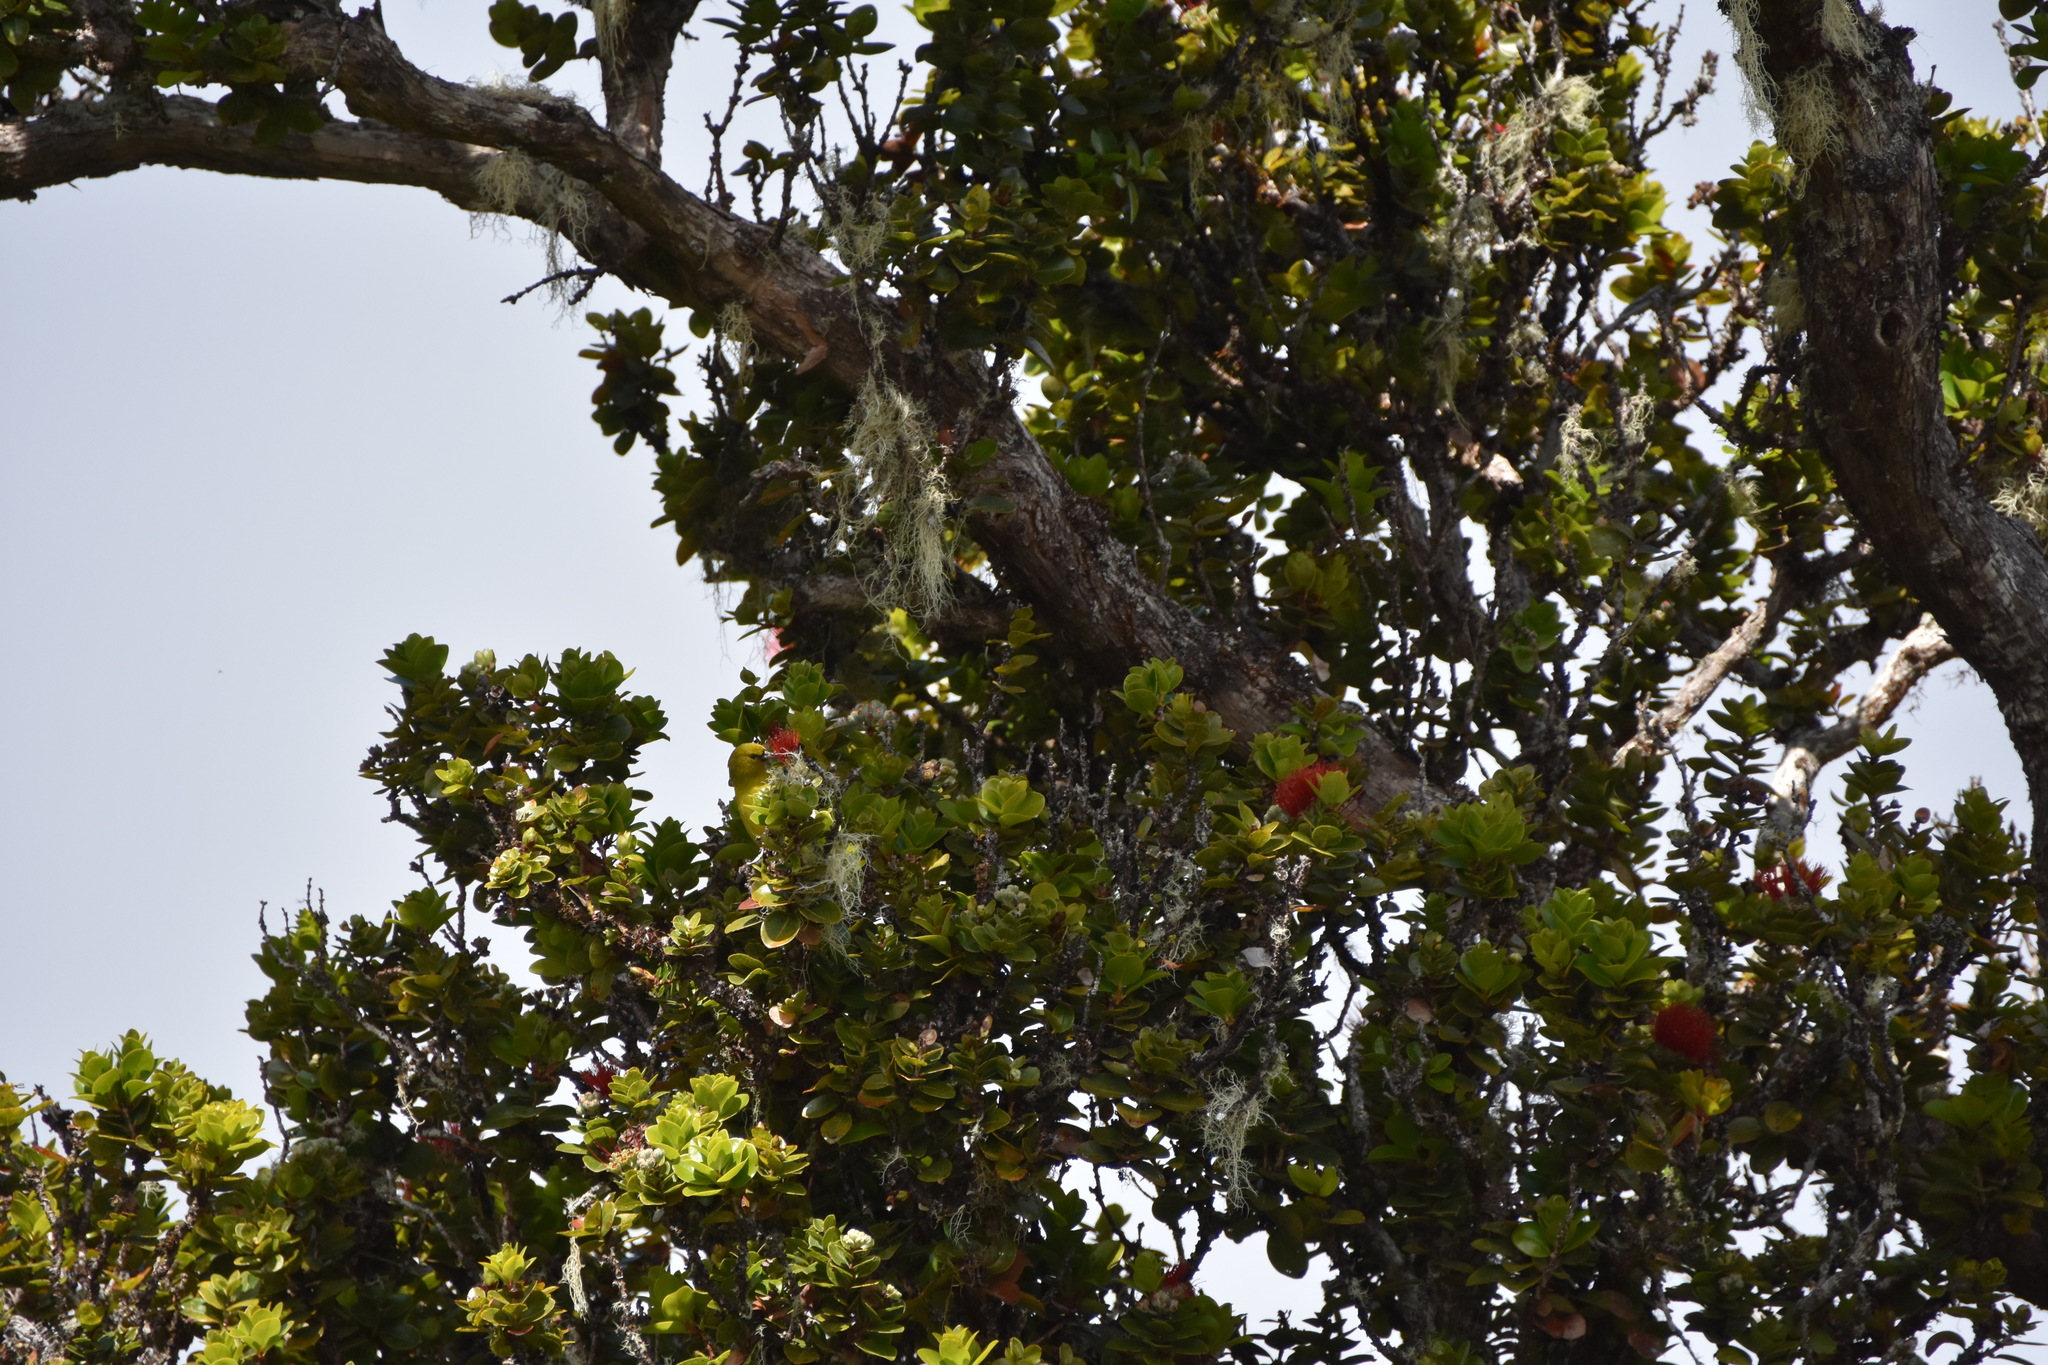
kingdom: Animalia
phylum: Chordata
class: Aves
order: Passeriformes
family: Fringillidae
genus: Chlorodrepanis
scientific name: Chlorodrepanis virens
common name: Hawaii amakihi
